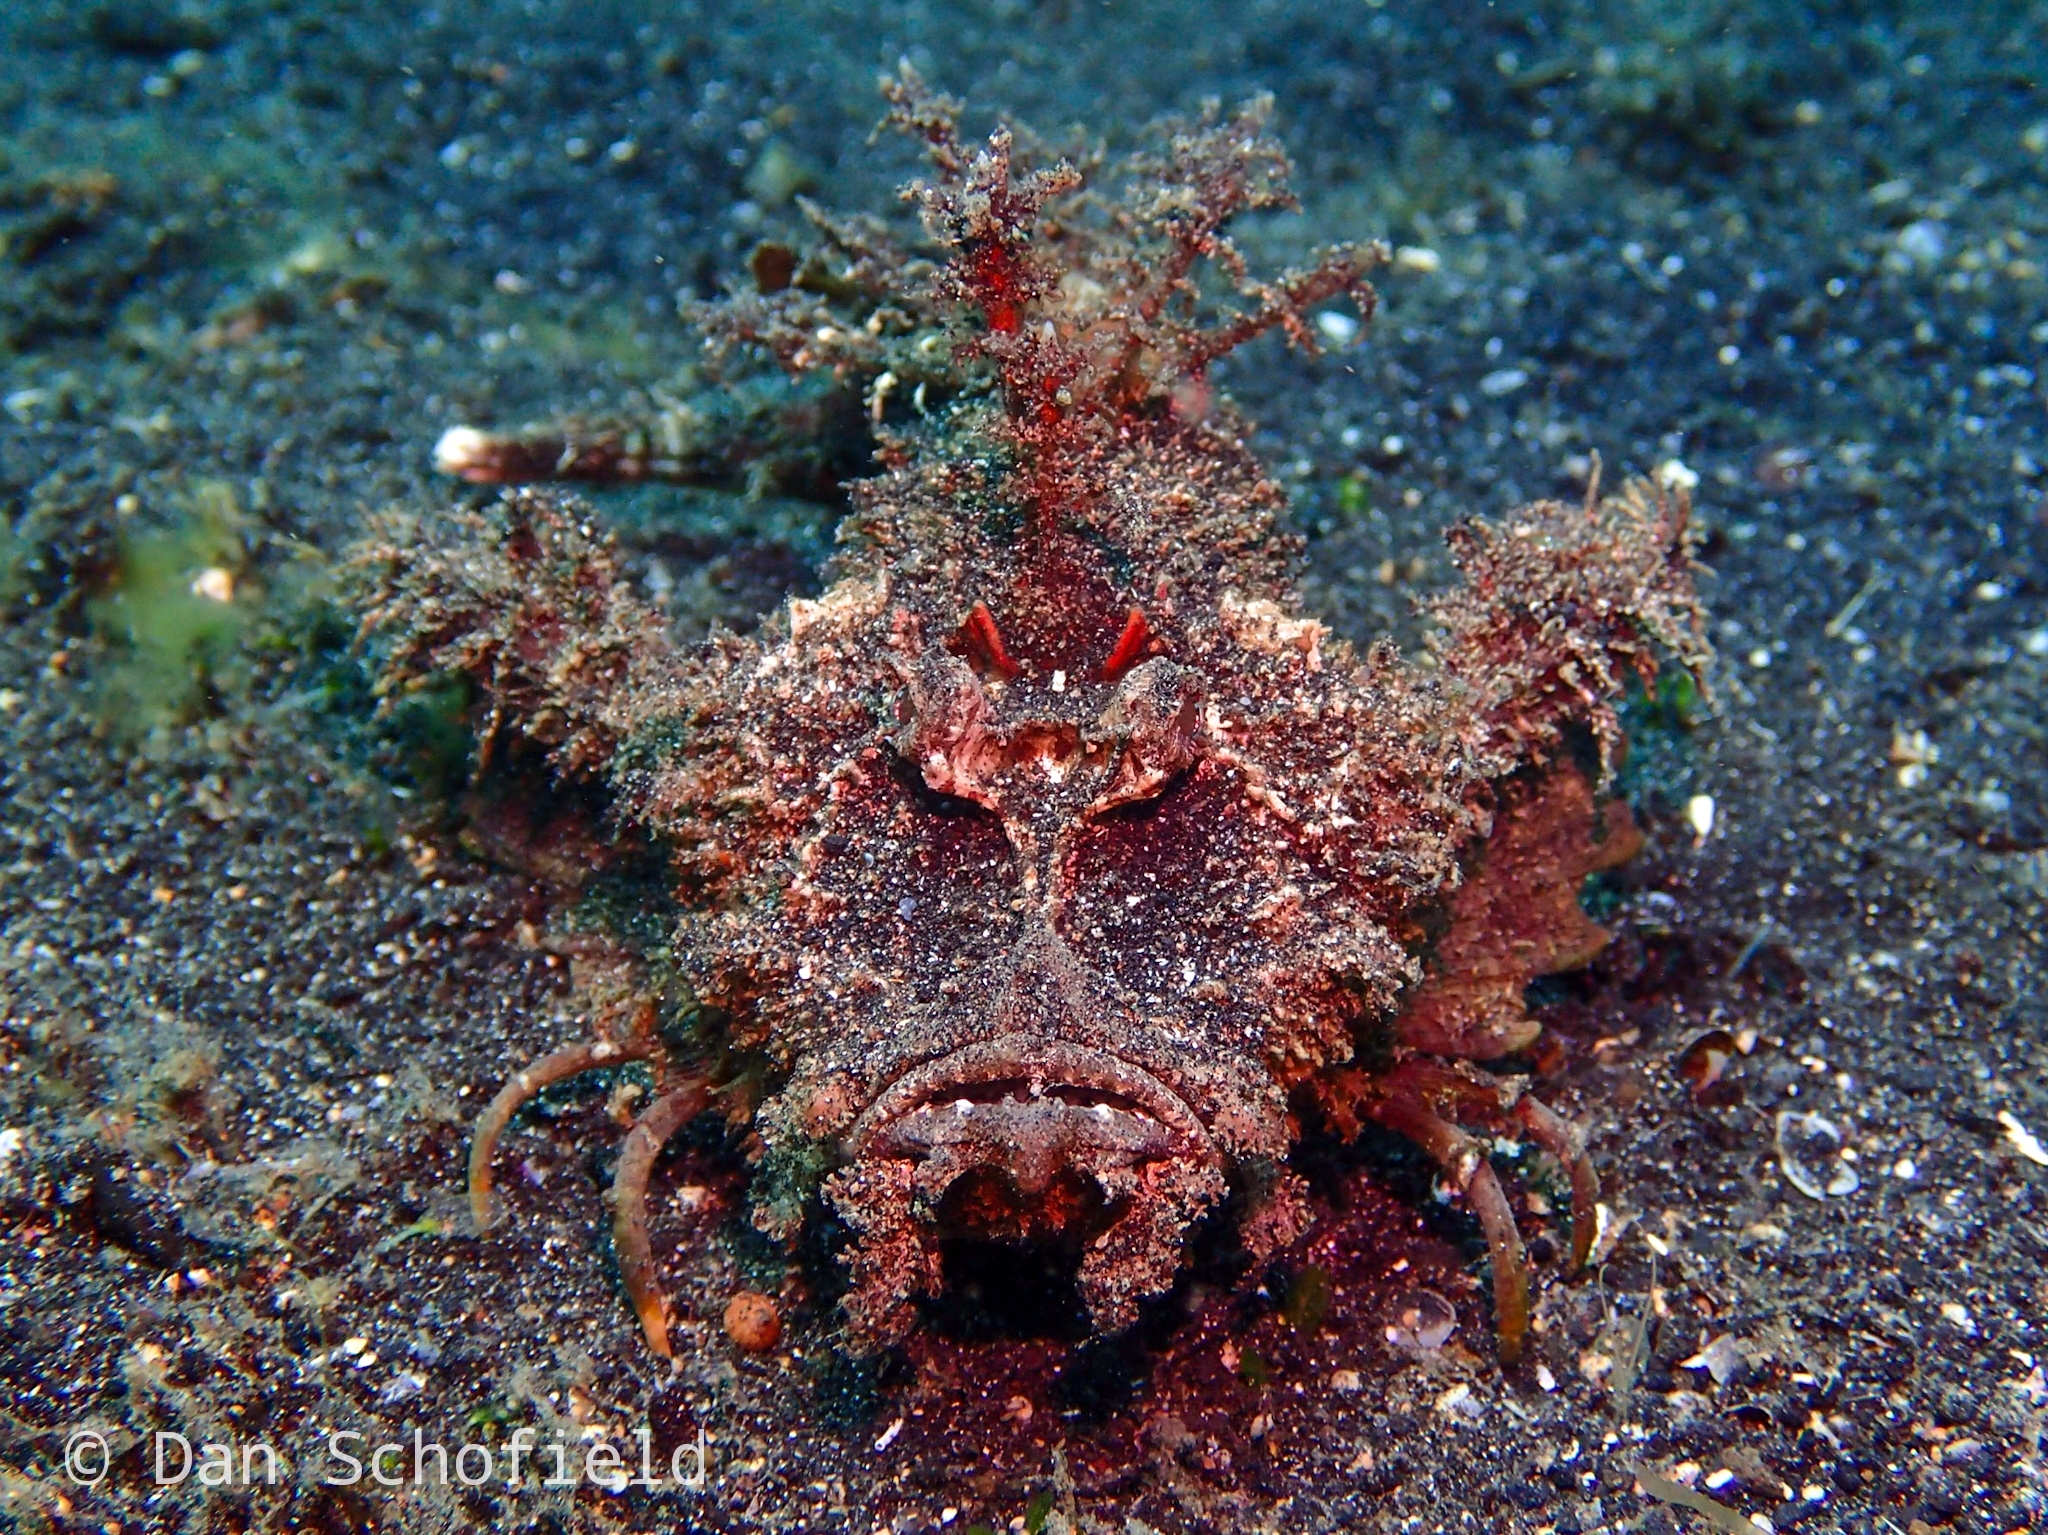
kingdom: Animalia
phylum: Chordata
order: Scorpaeniformes
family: Synanceiidae
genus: Inimicus
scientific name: Inimicus didactylus
